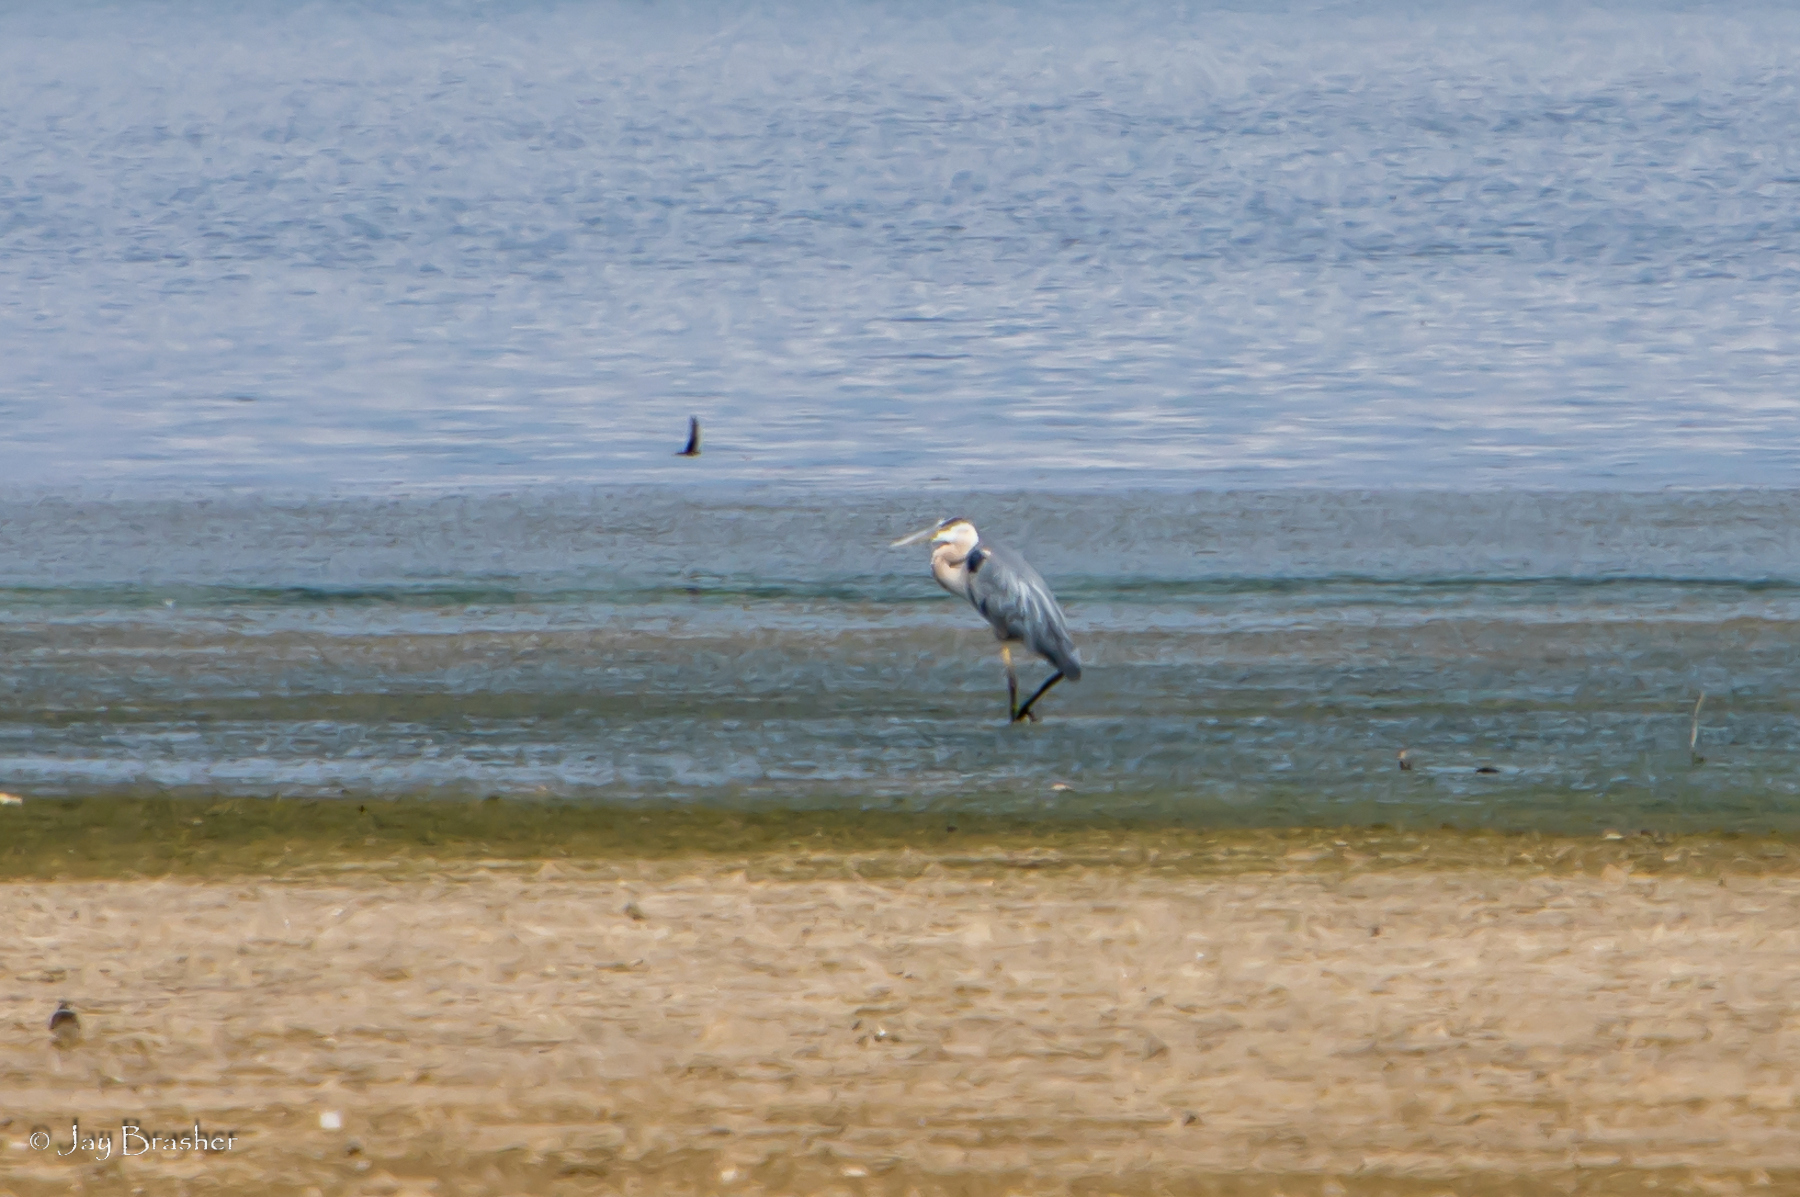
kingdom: Animalia
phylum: Chordata
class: Aves
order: Pelecaniformes
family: Ardeidae
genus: Ardea
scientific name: Ardea herodias
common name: Great blue heron
